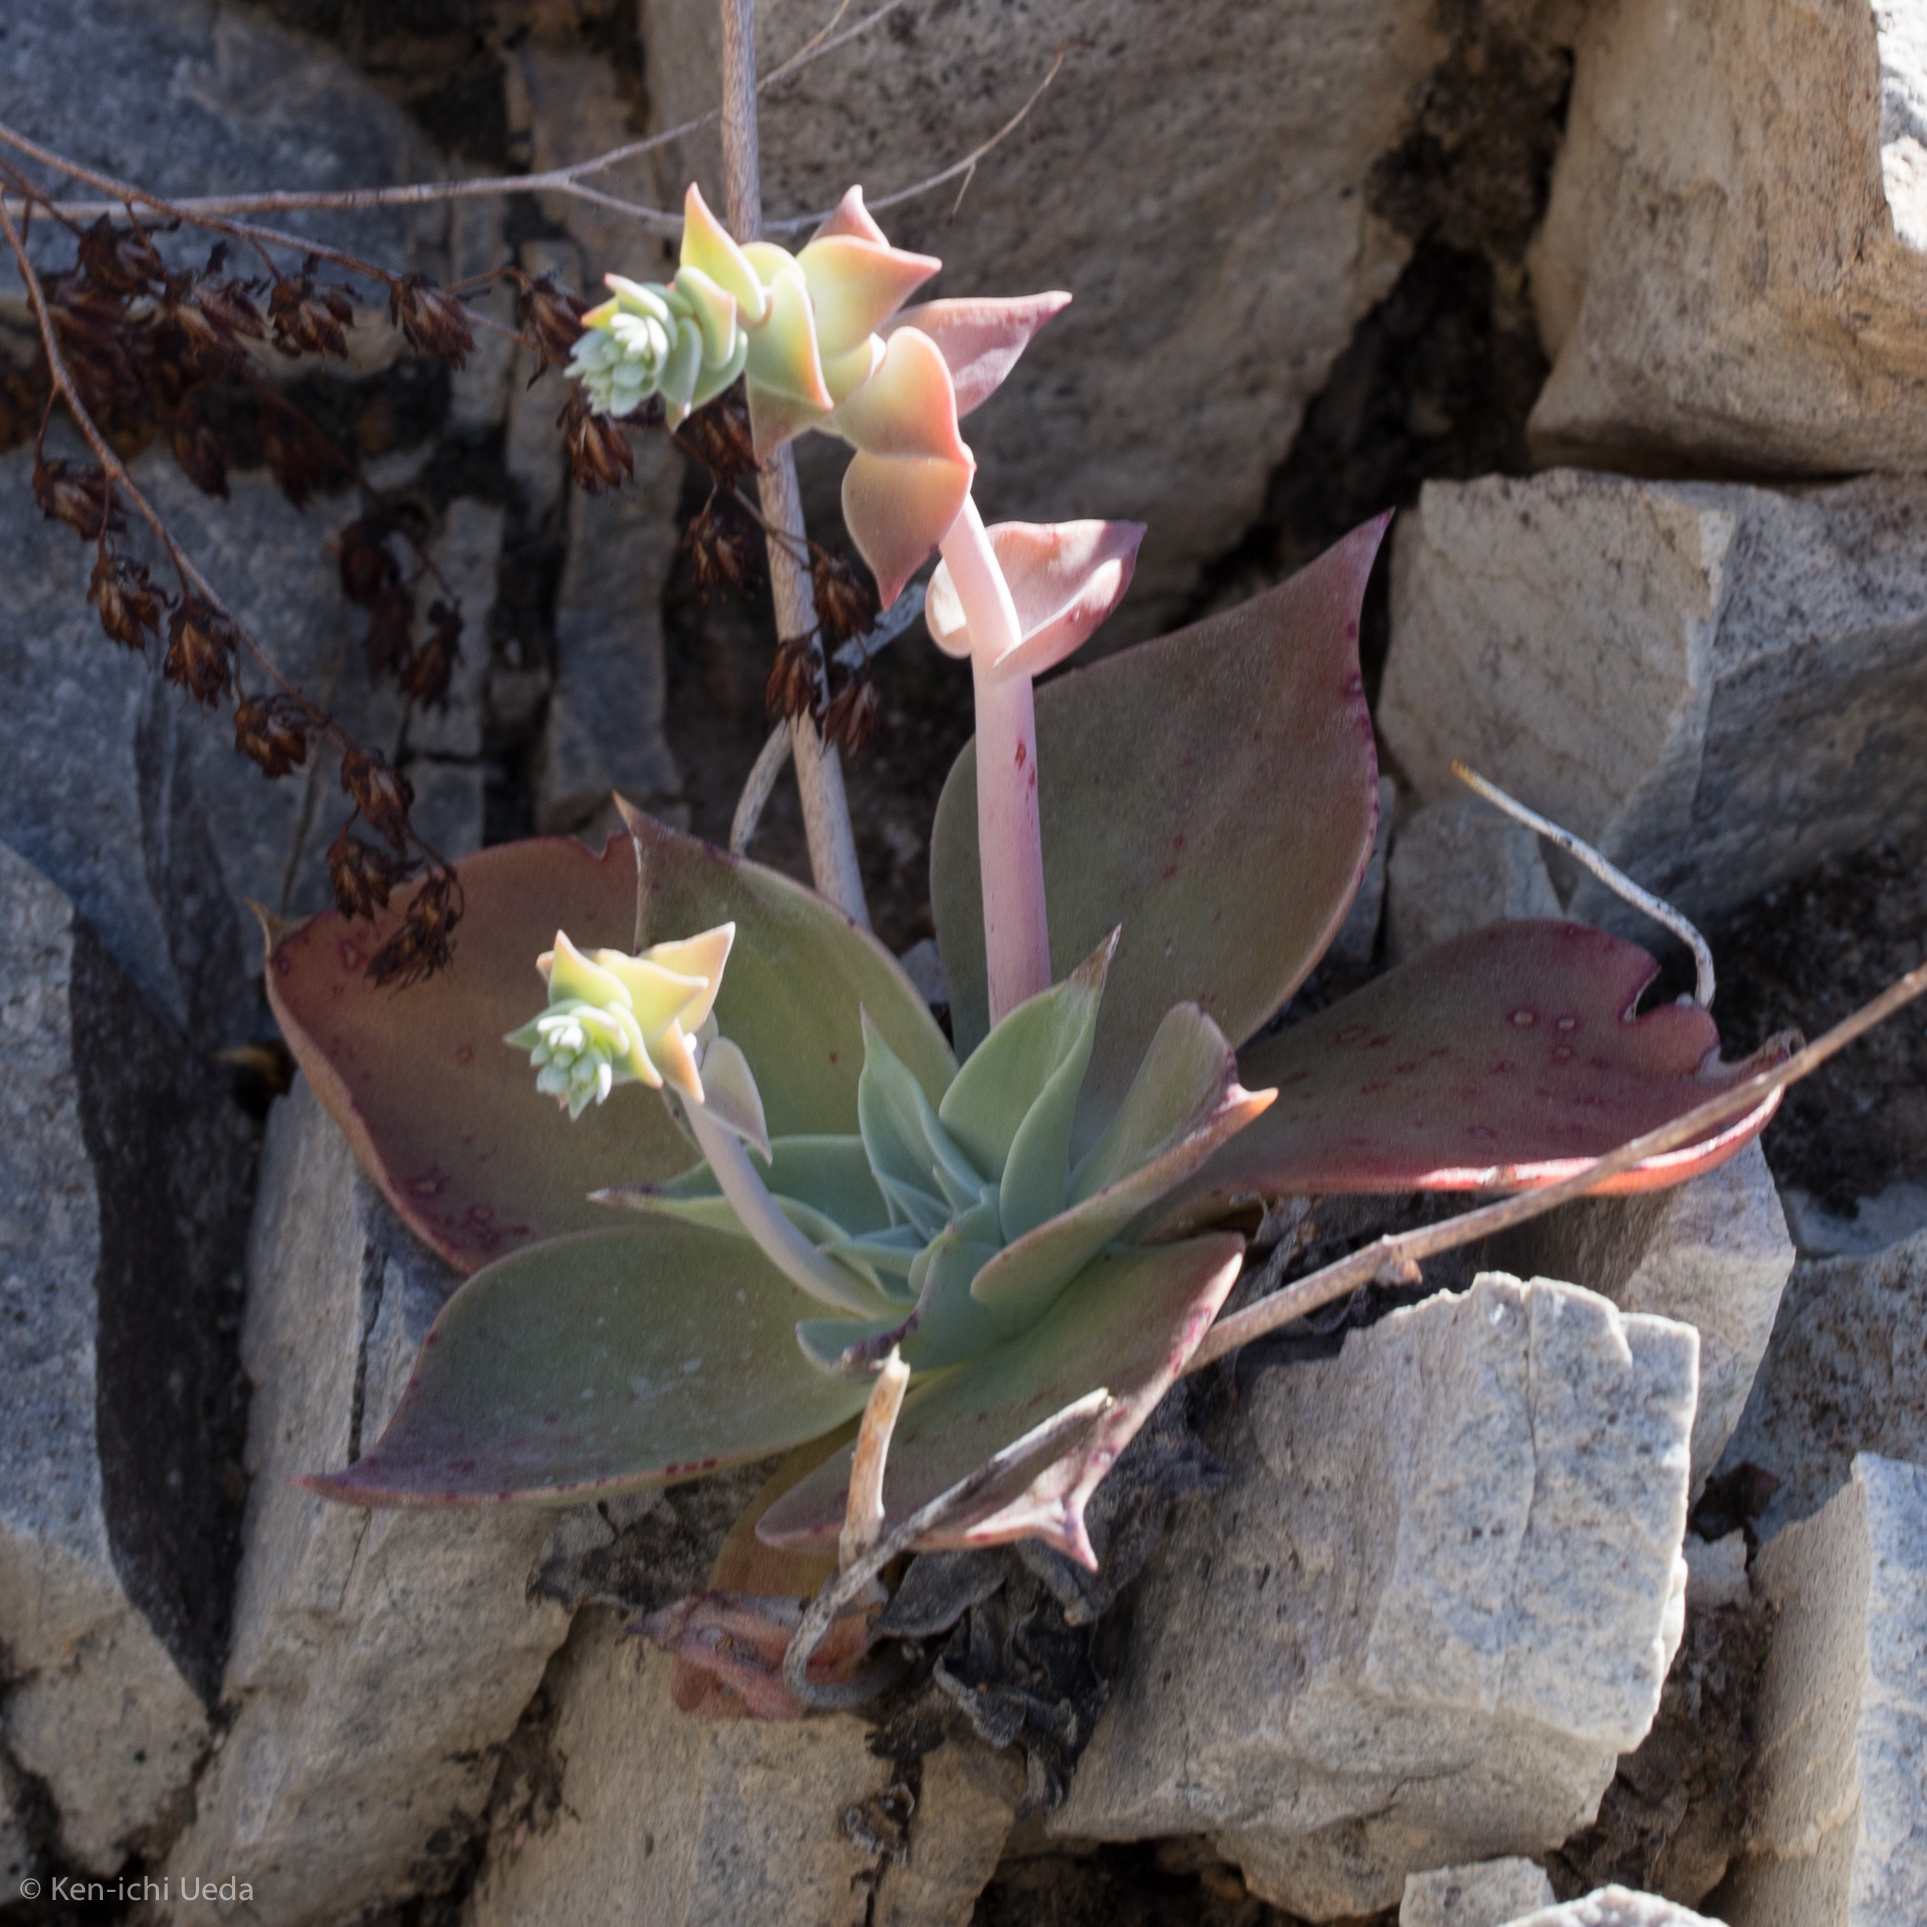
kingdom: Plantae
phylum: Tracheophyta
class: Magnoliopsida
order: Saxifragales
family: Crassulaceae
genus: Dudleya
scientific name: Dudleya arizonica
